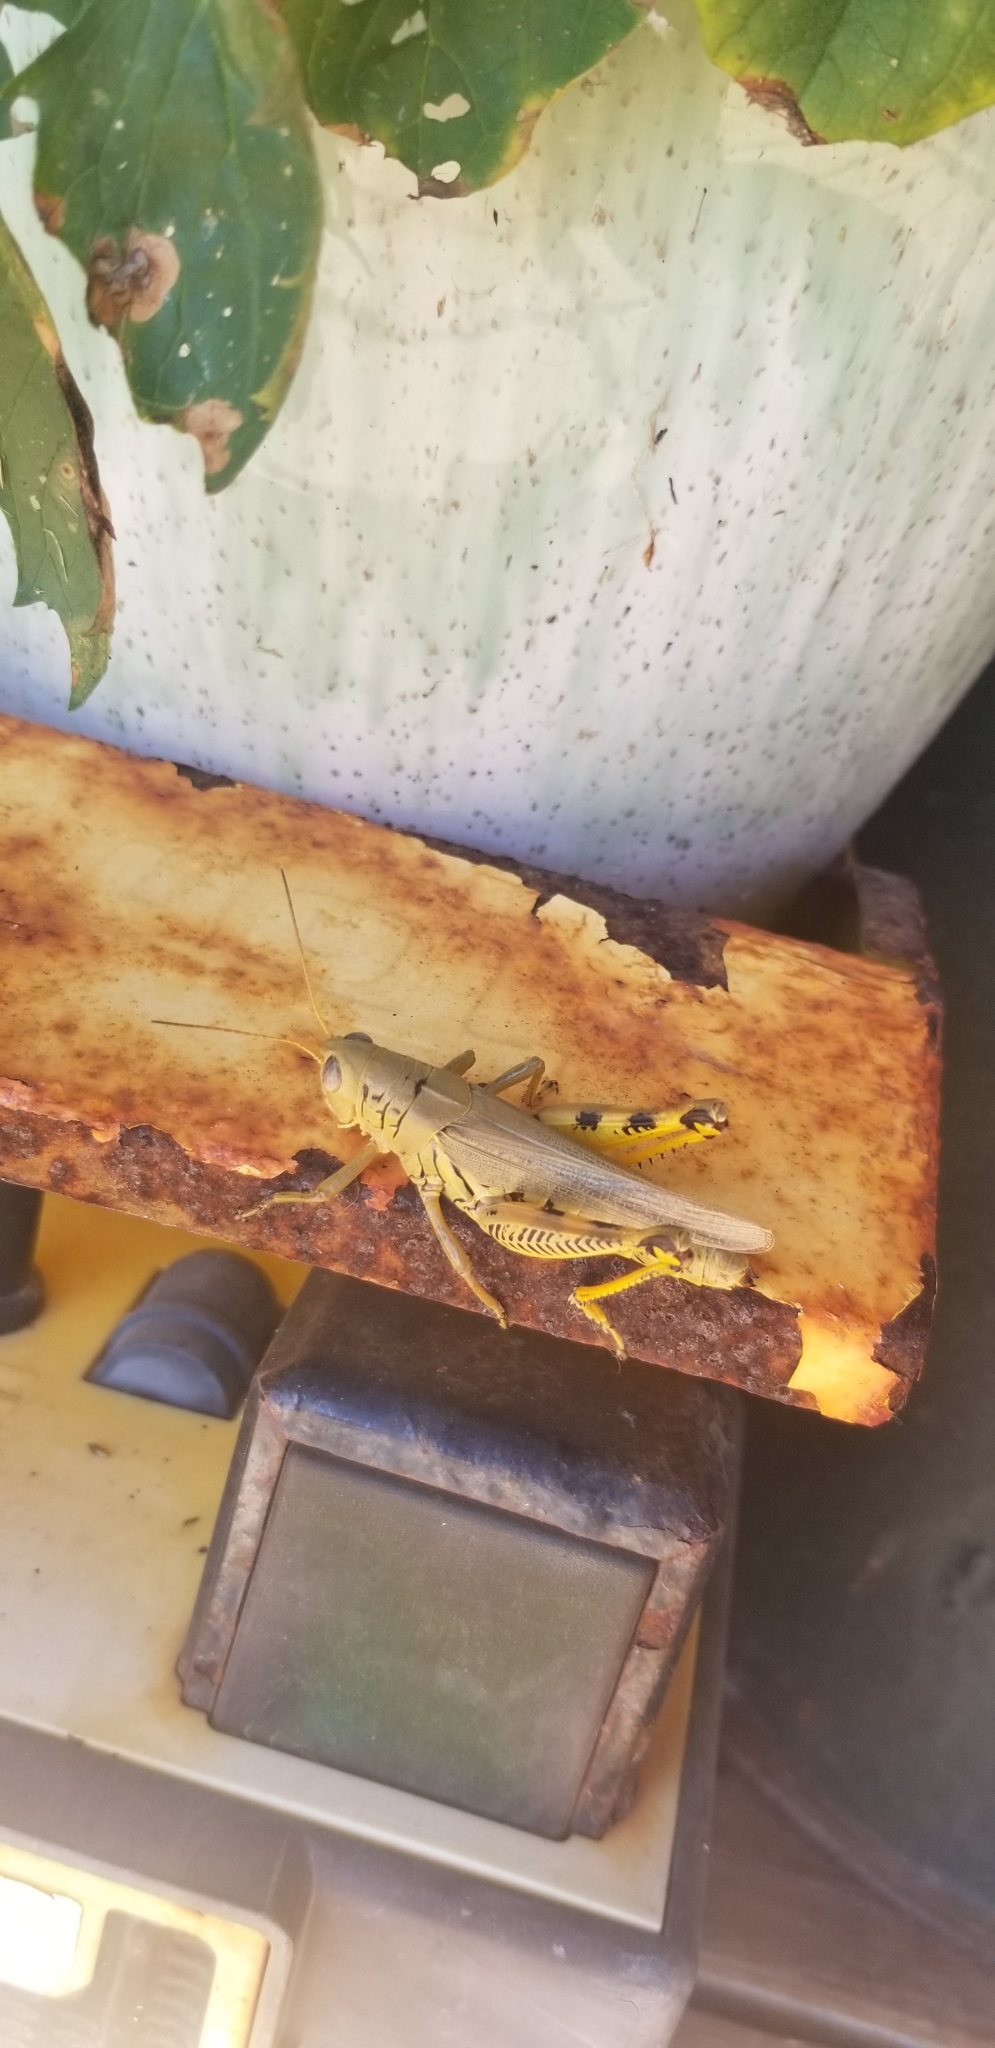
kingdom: Animalia
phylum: Arthropoda
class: Insecta
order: Orthoptera
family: Acrididae
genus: Melanoplus
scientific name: Melanoplus differentialis
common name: Differential grasshopper
